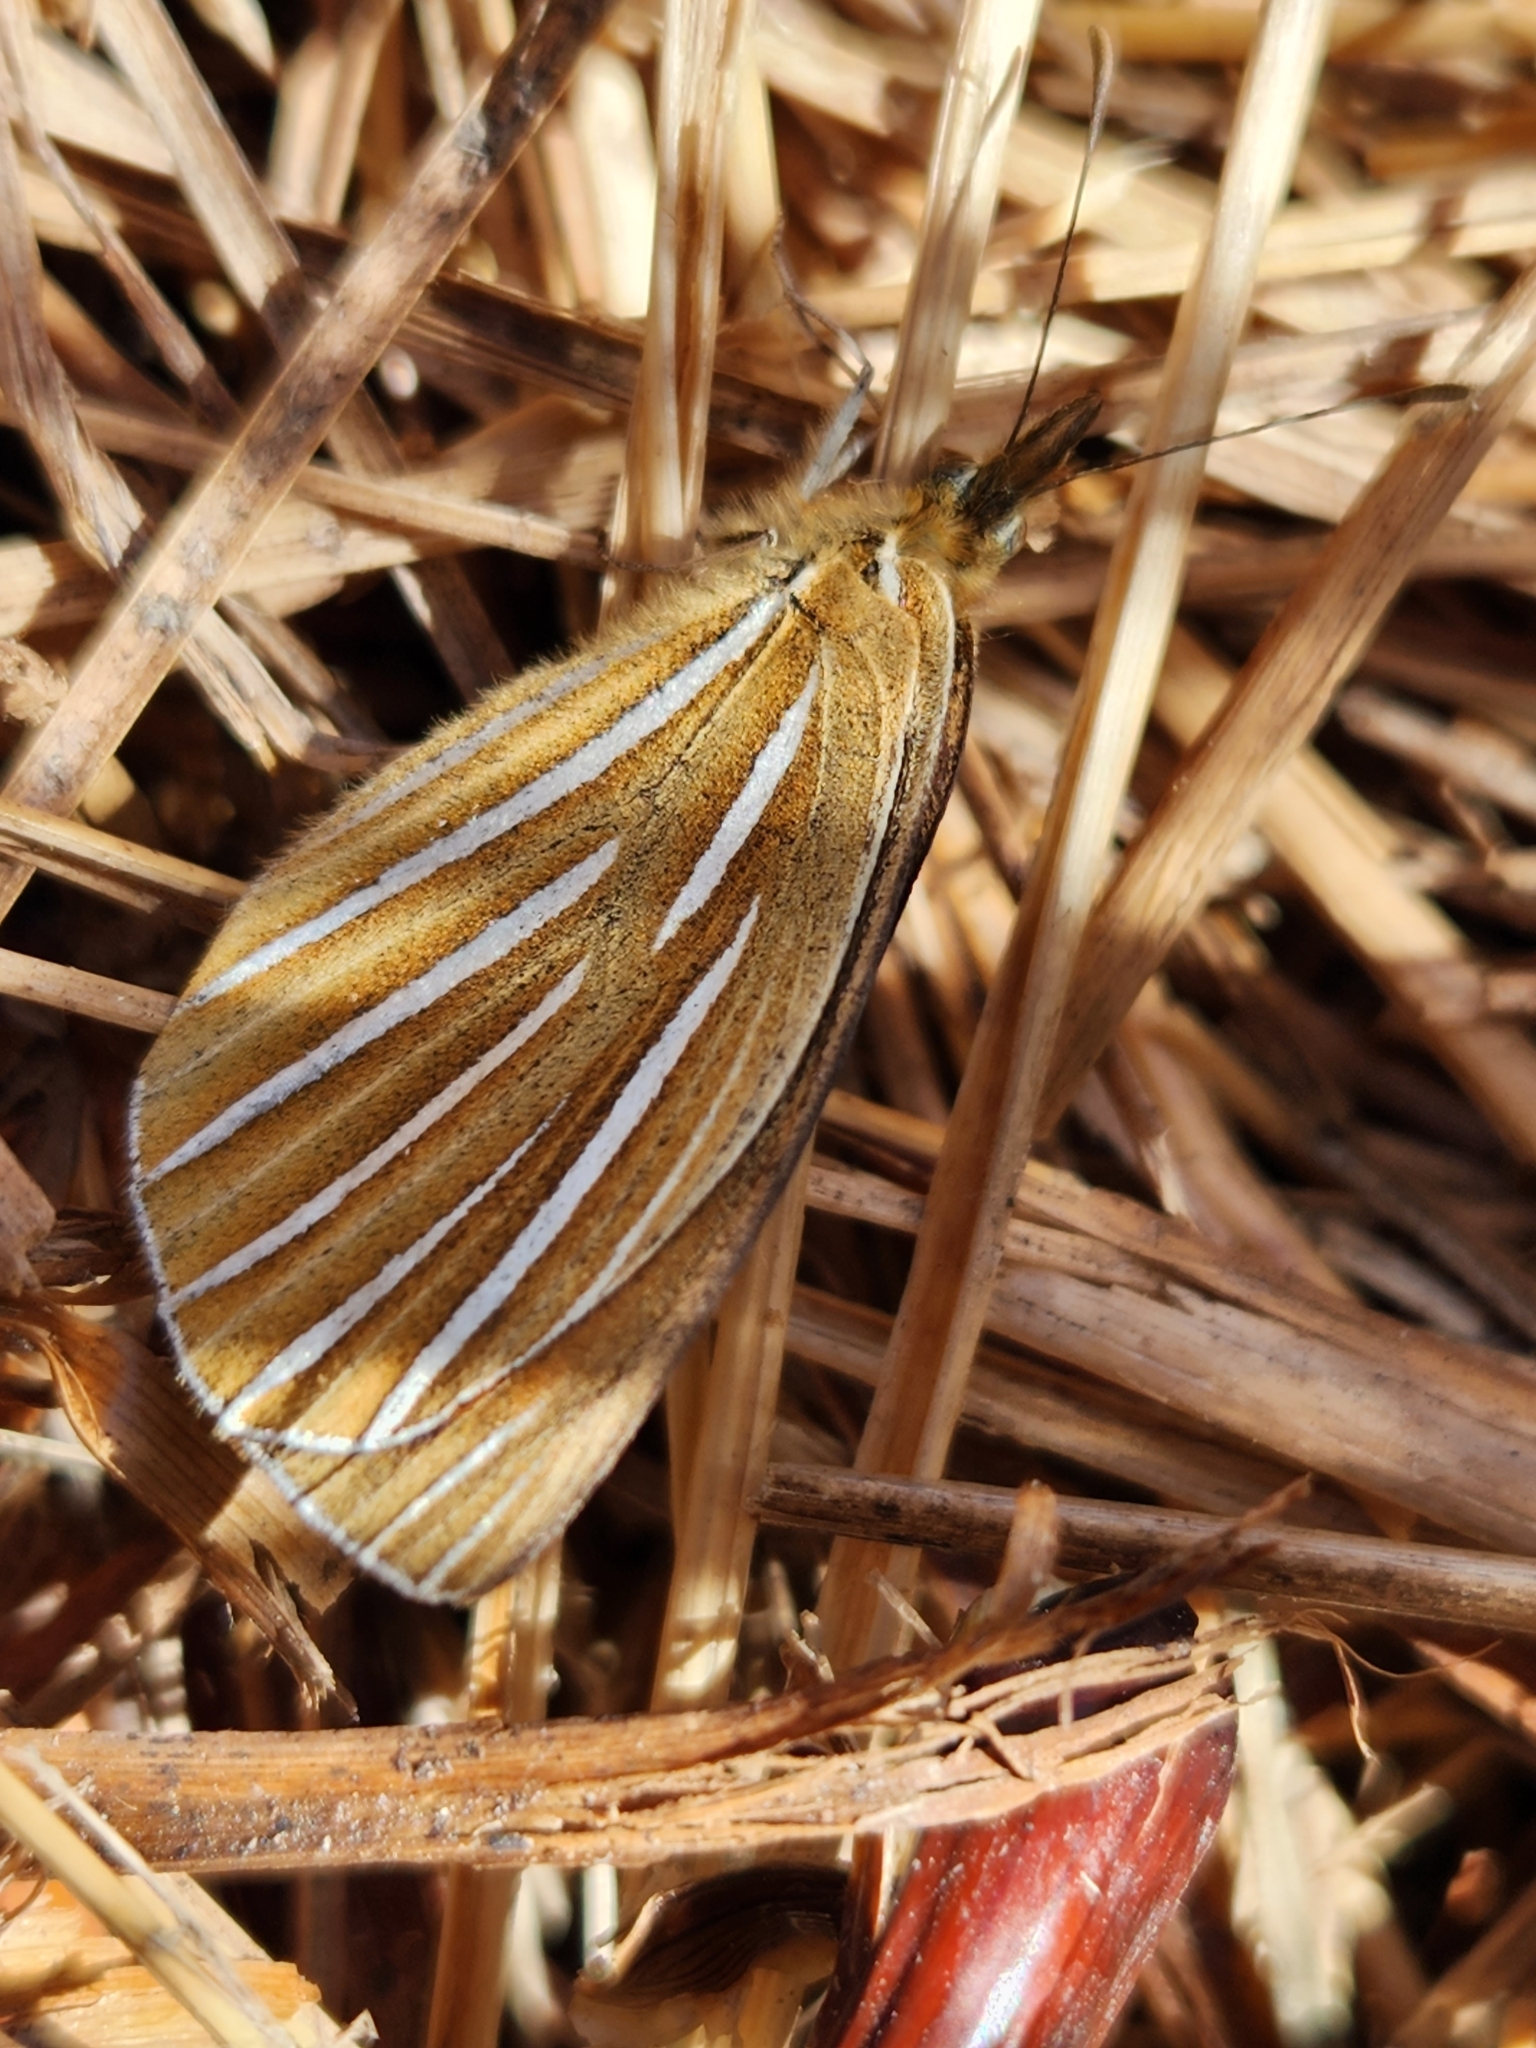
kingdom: Animalia
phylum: Arthropoda
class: Insecta
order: Lepidoptera
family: Nymphalidae
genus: Argyrophenga
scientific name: Argyrophenga antipodum
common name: Common tussock butterfly
